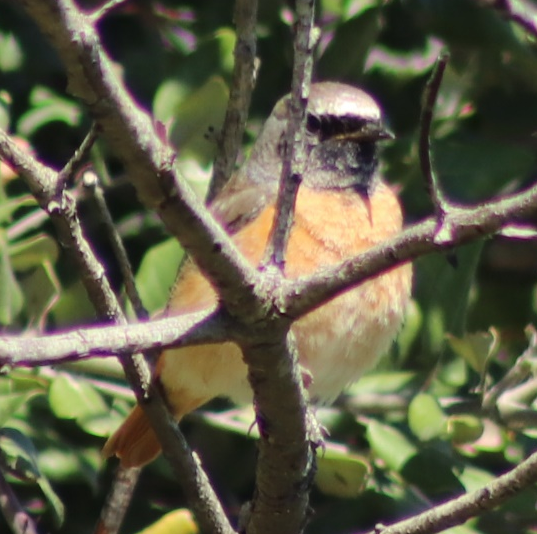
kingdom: Animalia
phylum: Chordata
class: Aves
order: Passeriformes
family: Muscicapidae
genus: Phoenicurus
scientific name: Phoenicurus phoenicurus
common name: Common redstart
